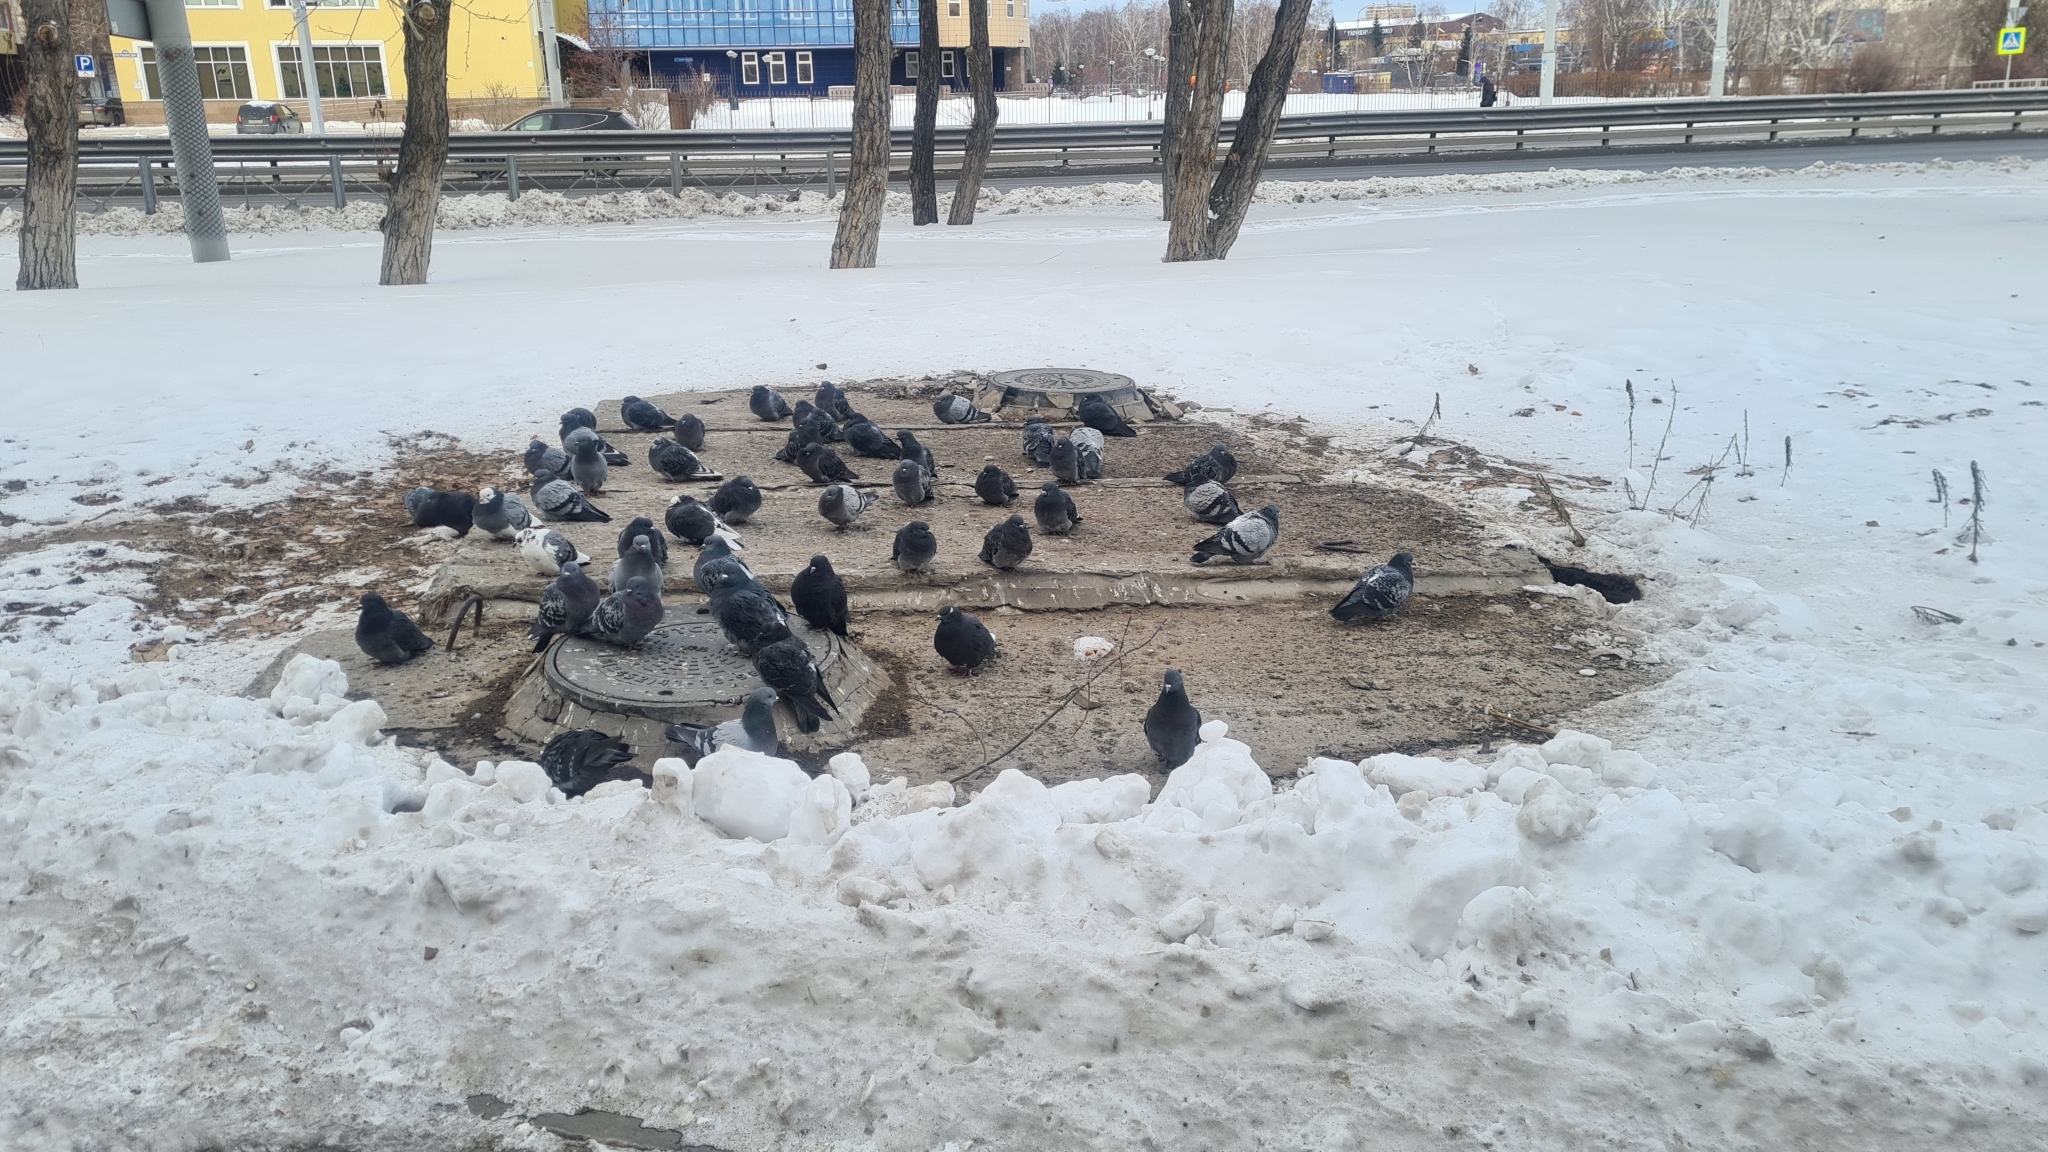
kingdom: Animalia
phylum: Chordata
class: Aves
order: Columbiformes
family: Columbidae
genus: Columba
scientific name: Columba livia
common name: Rock pigeon
